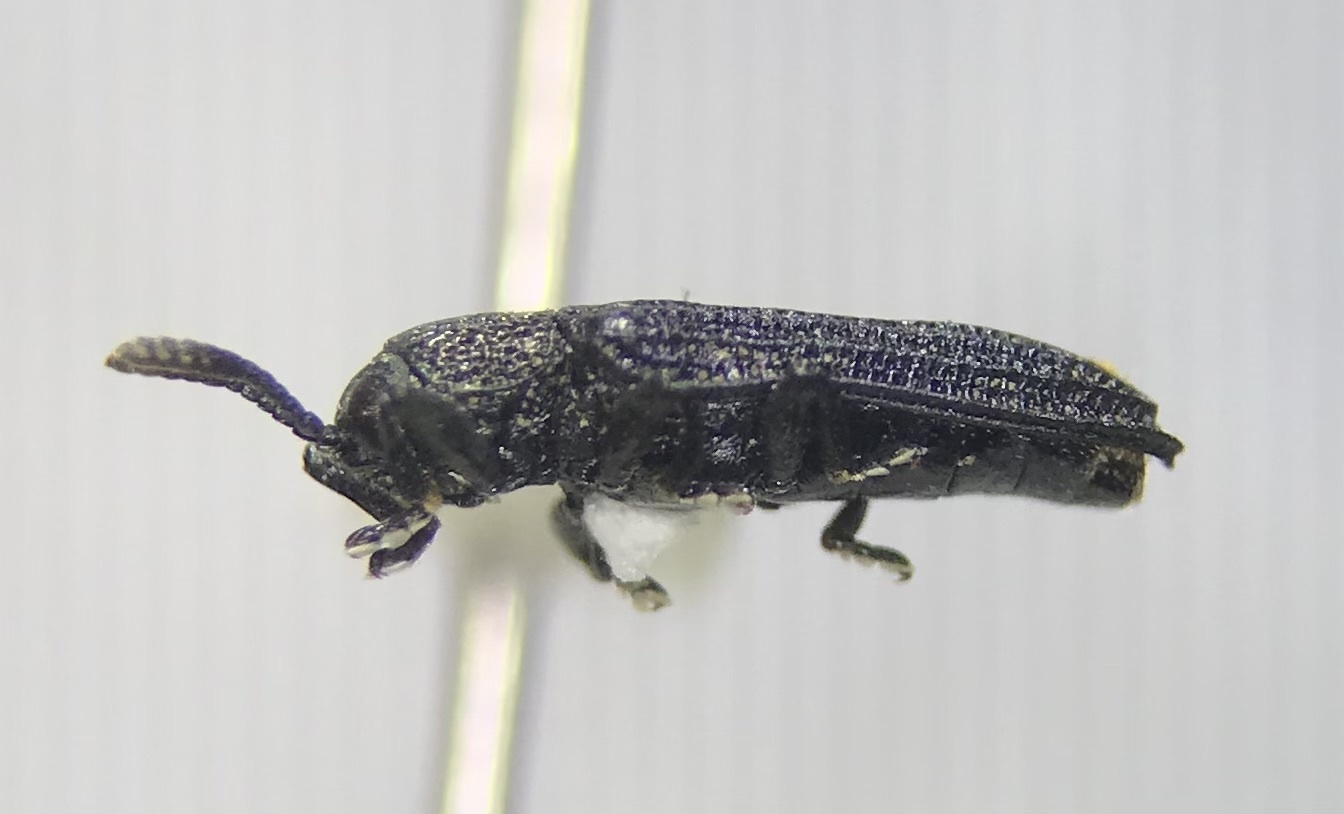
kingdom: Animalia
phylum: Arthropoda
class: Insecta
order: Coleoptera
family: Chrysomelidae
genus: Anisostena
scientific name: Anisostena nigrita
